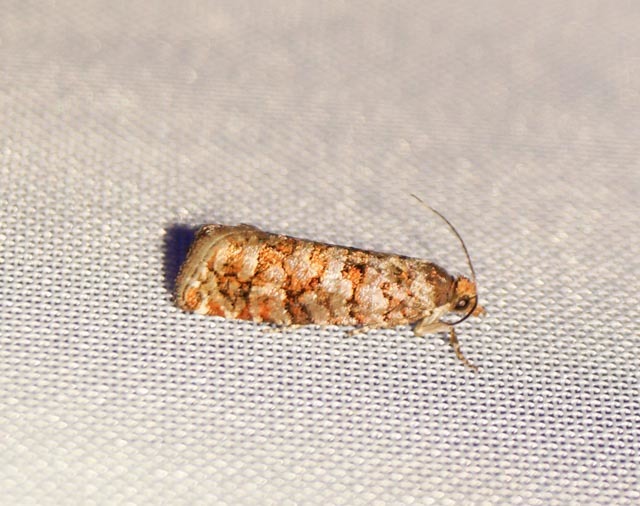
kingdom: Animalia
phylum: Arthropoda
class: Insecta
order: Lepidoptera
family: Tortricidae
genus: Gravitarmata
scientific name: Gravitarmata margarotana
